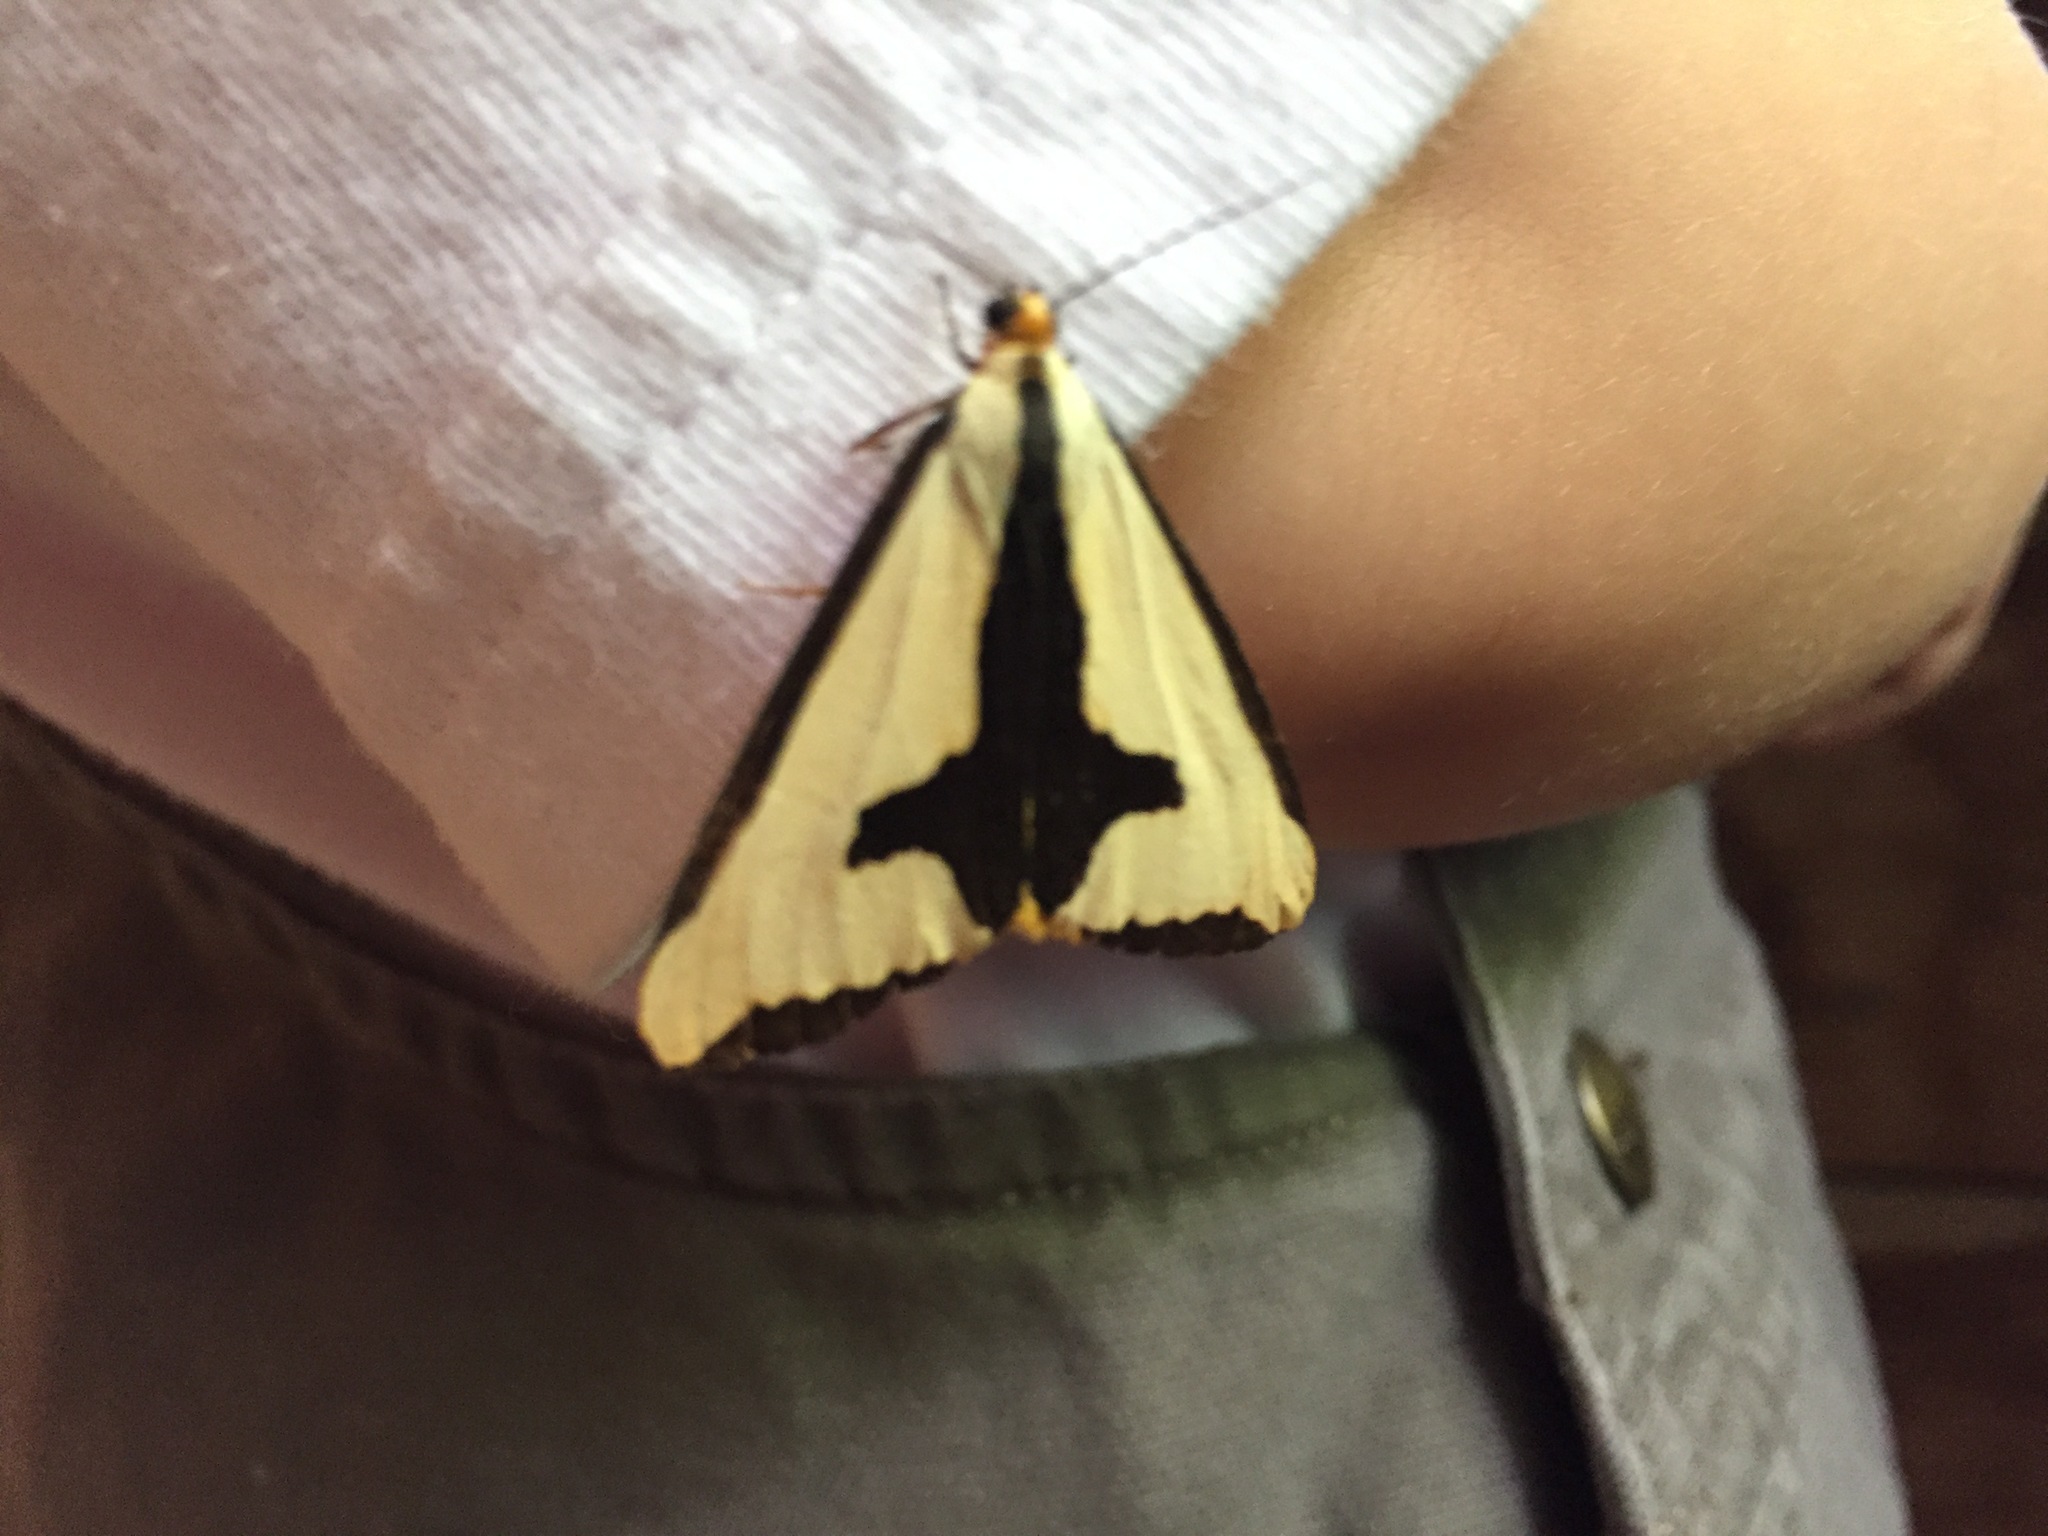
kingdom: Animalia
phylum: Arthropoda
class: Insecta
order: Lepidoptera
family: Erebidae
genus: Haploa
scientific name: Haploa clymene
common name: Clymene moth
